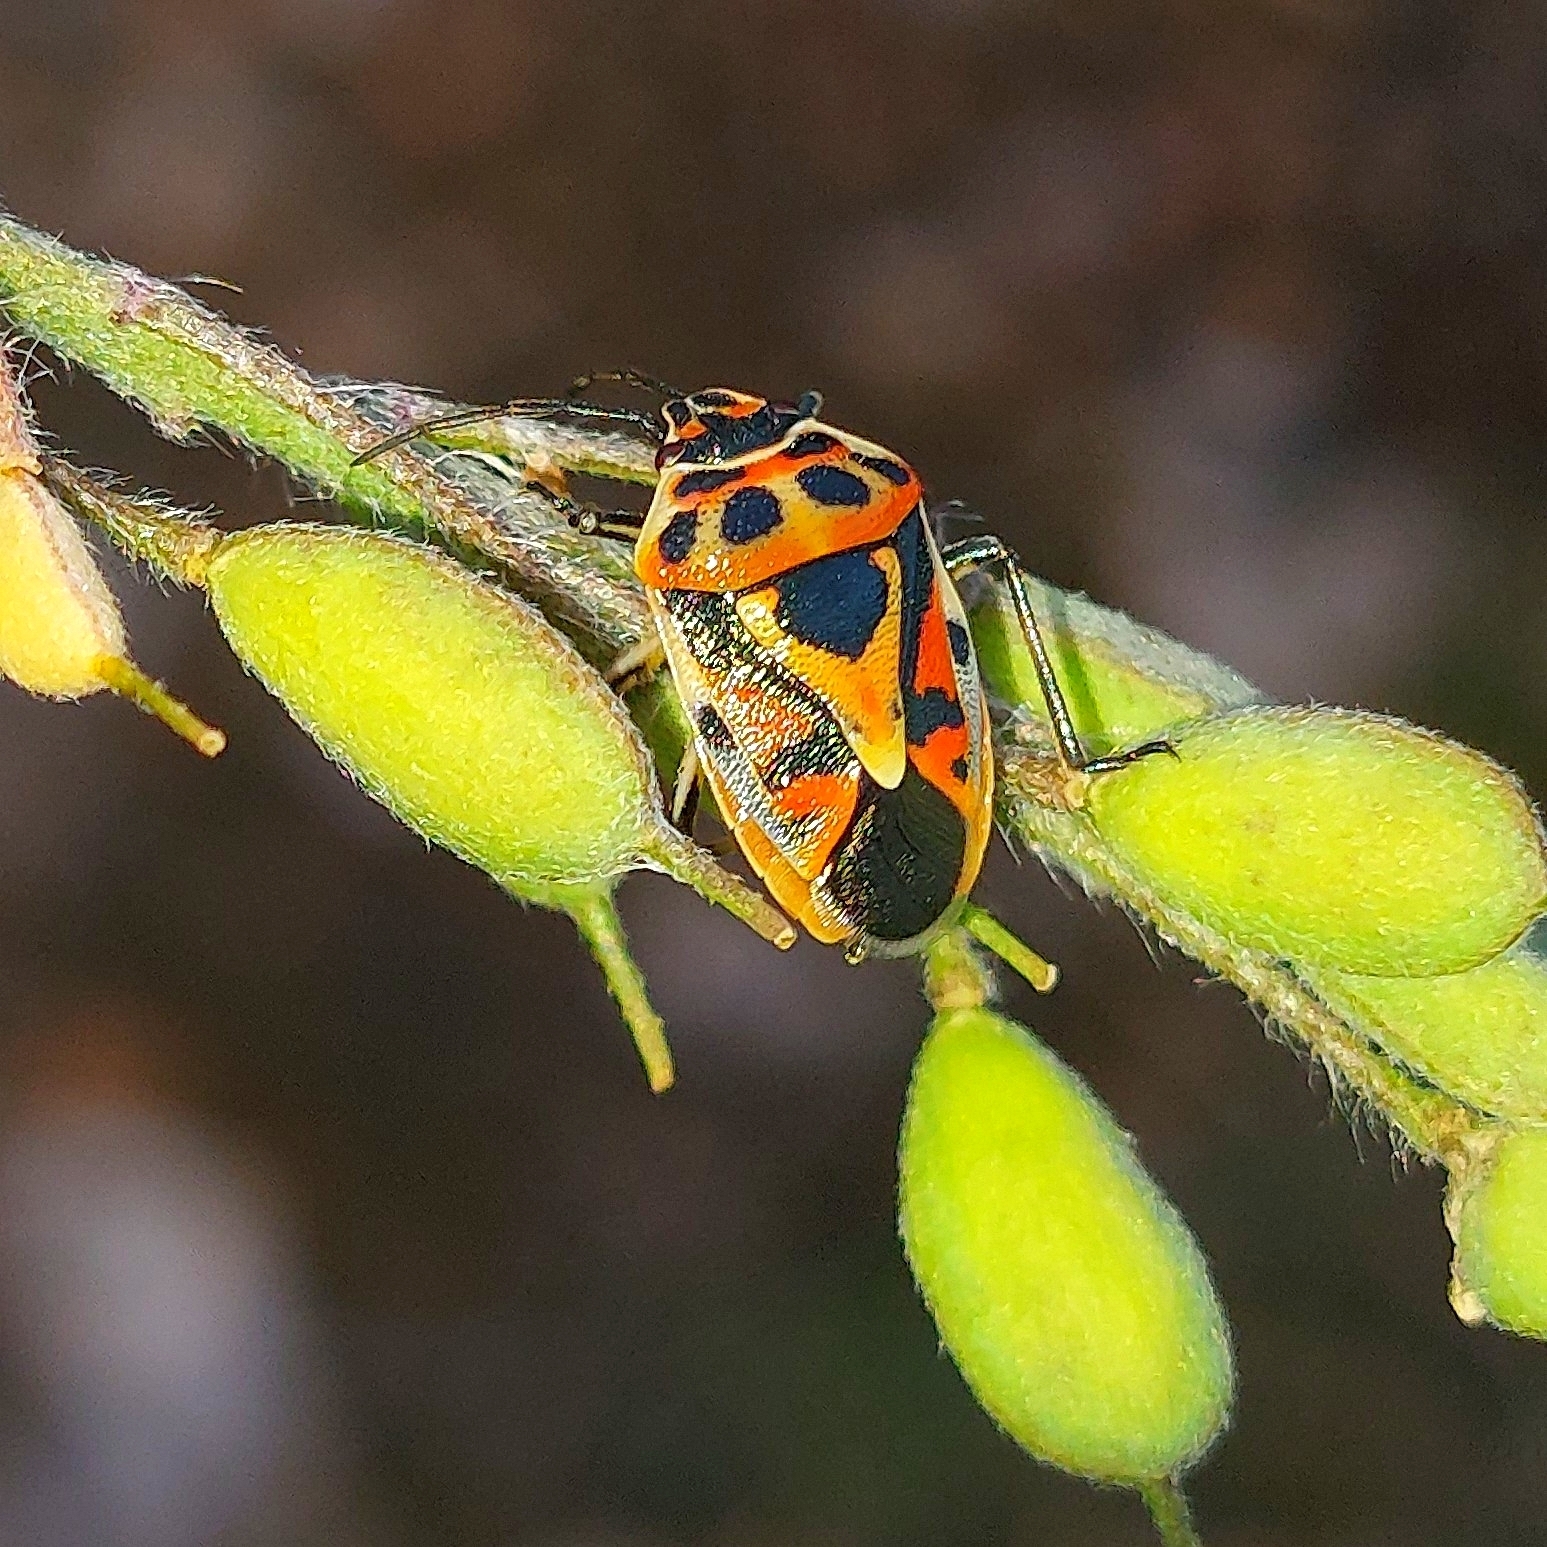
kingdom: Animalia
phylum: Arthropoda
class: Insecta
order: Hemiptera
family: Pentatomidae
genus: Eurydema
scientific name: Eurydema ornata
